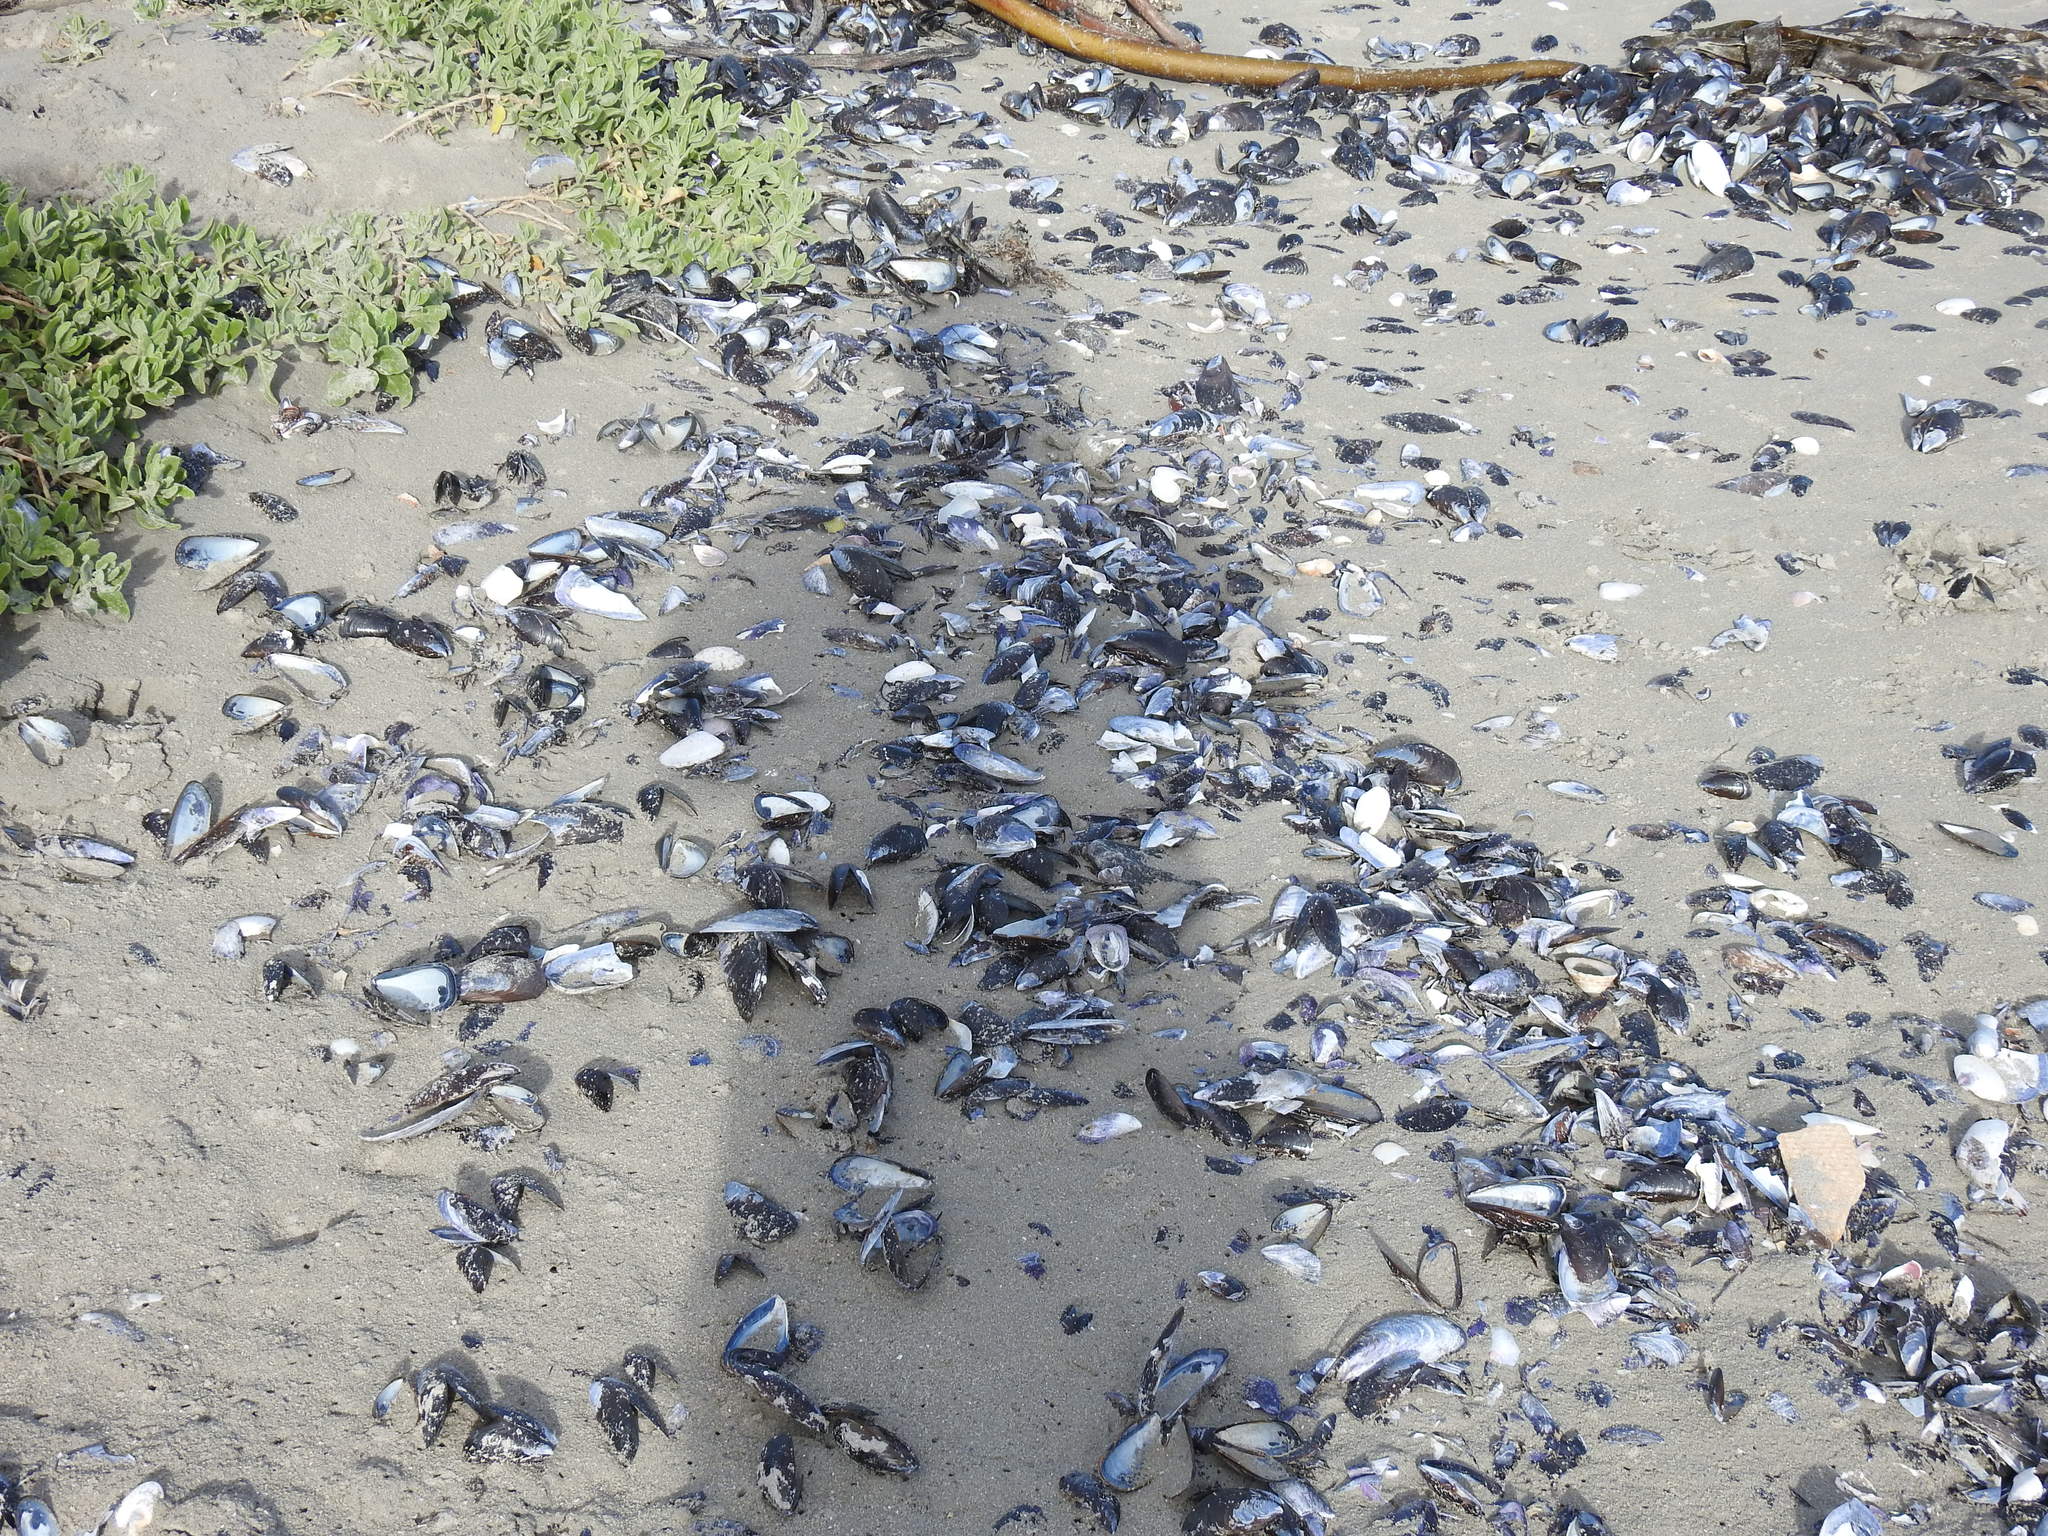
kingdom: Animalia
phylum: Mollusca
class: Bivalvia
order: Mytilida
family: Mytilidae
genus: Mytilus
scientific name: Mytilus galloprovincialis
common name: Mediterranean mussel
